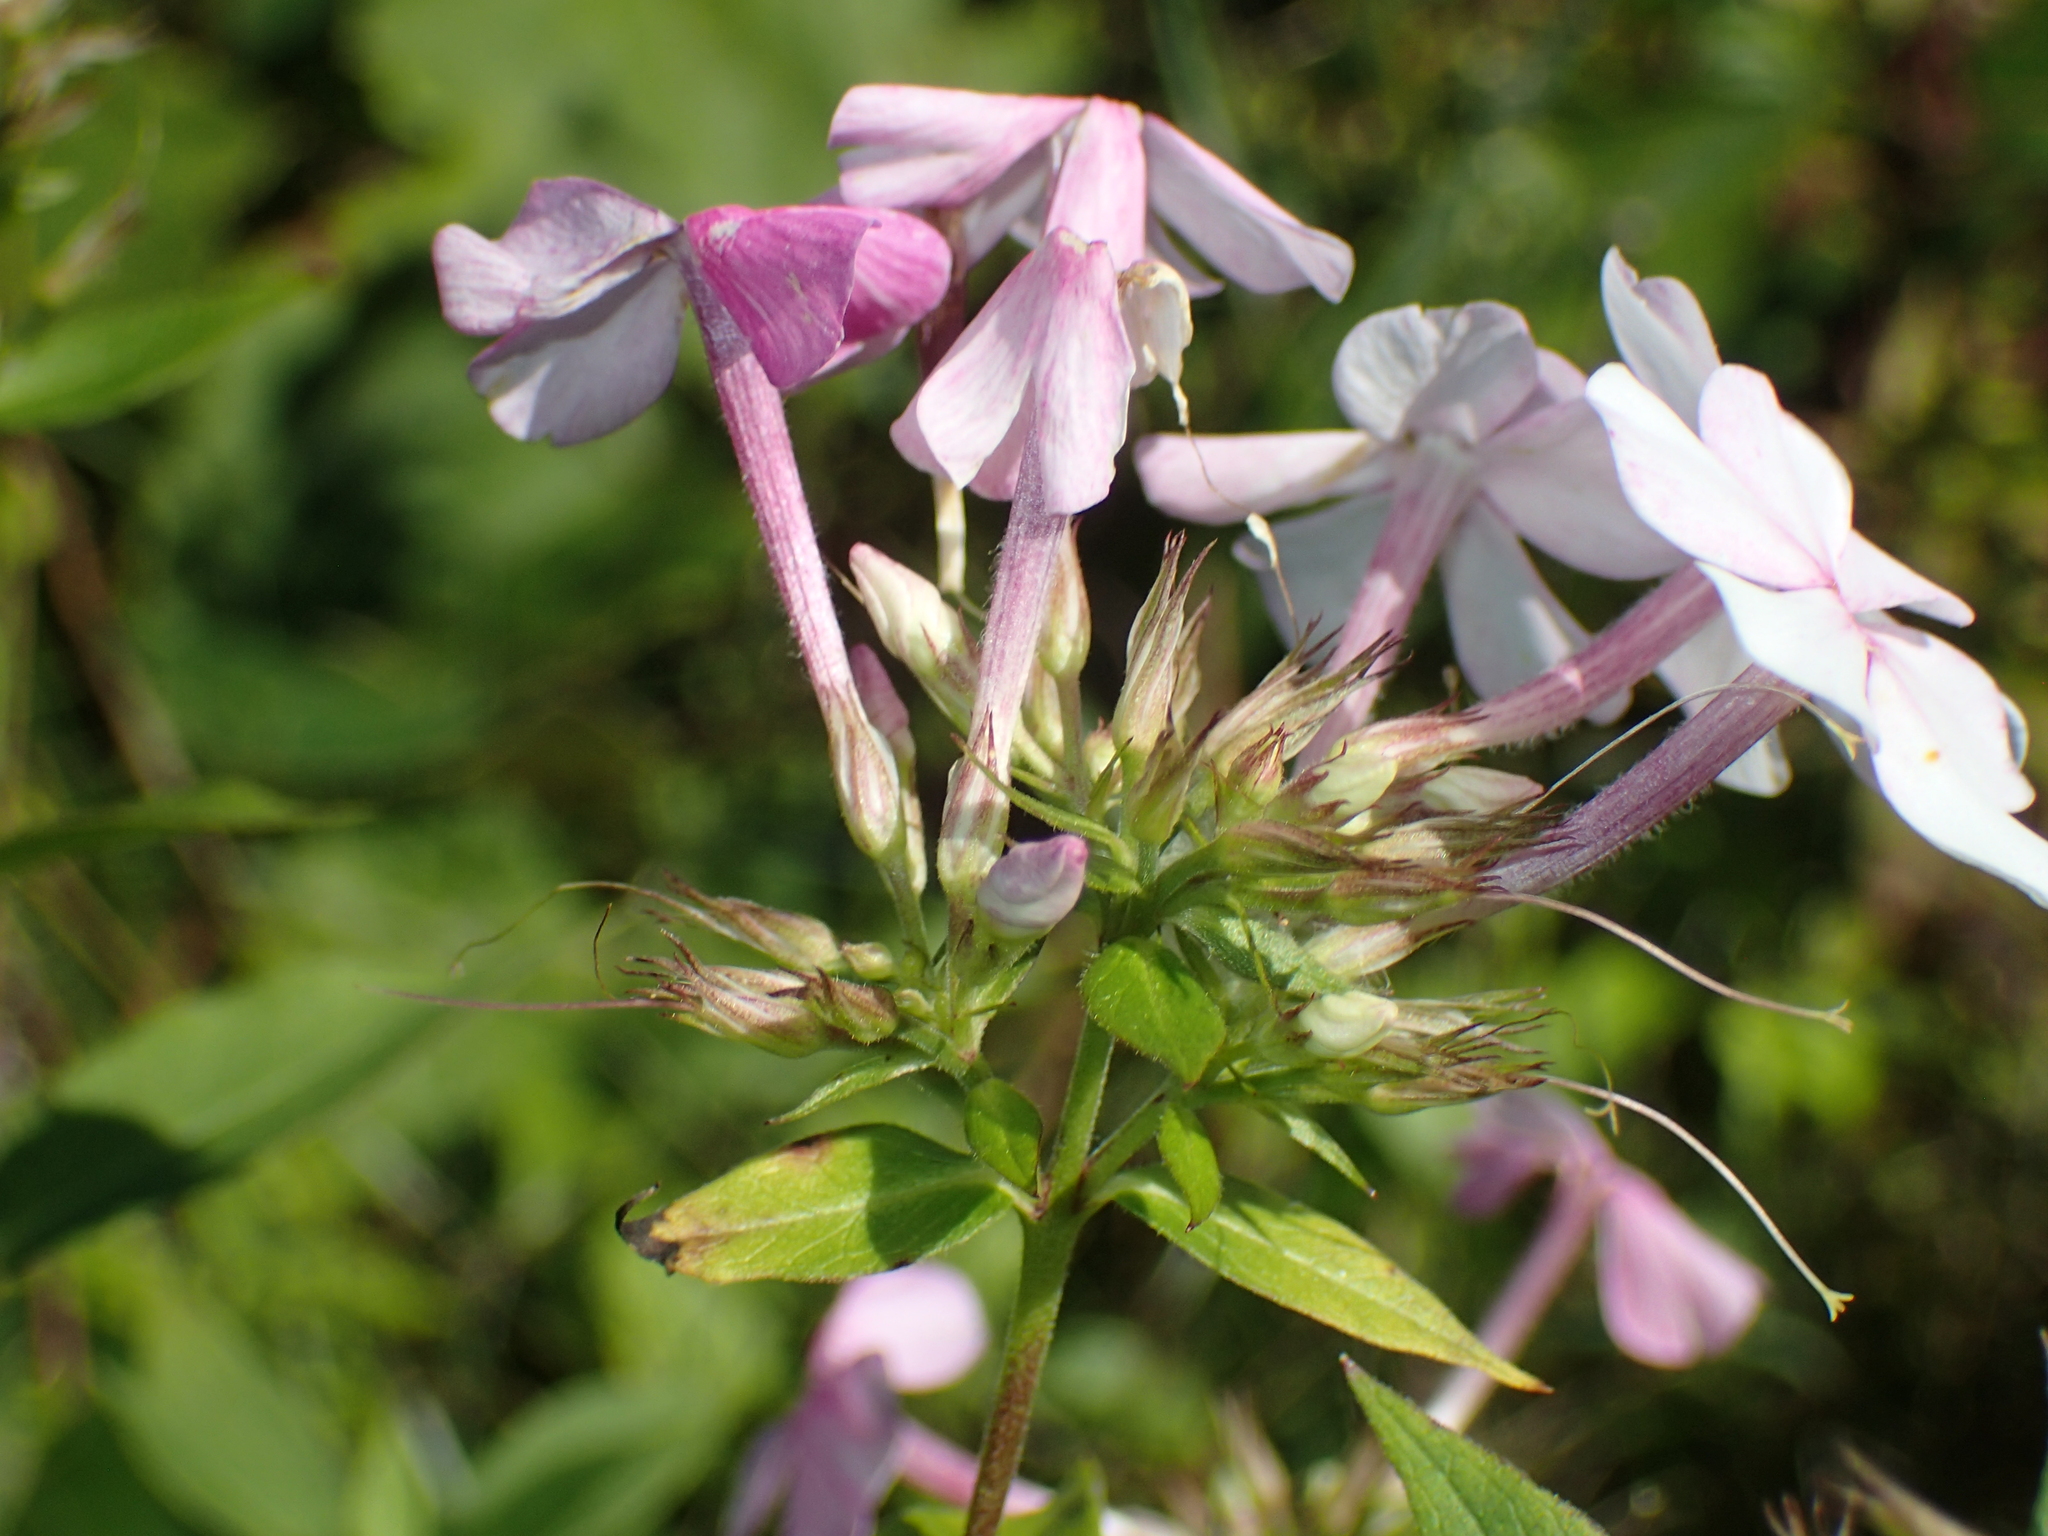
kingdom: Plantae
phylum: Tracheophyta
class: Magnoliopsida
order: Ericales
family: Polemoniaceae
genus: Phlox
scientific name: Phlox paniculata
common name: Fall phlox
